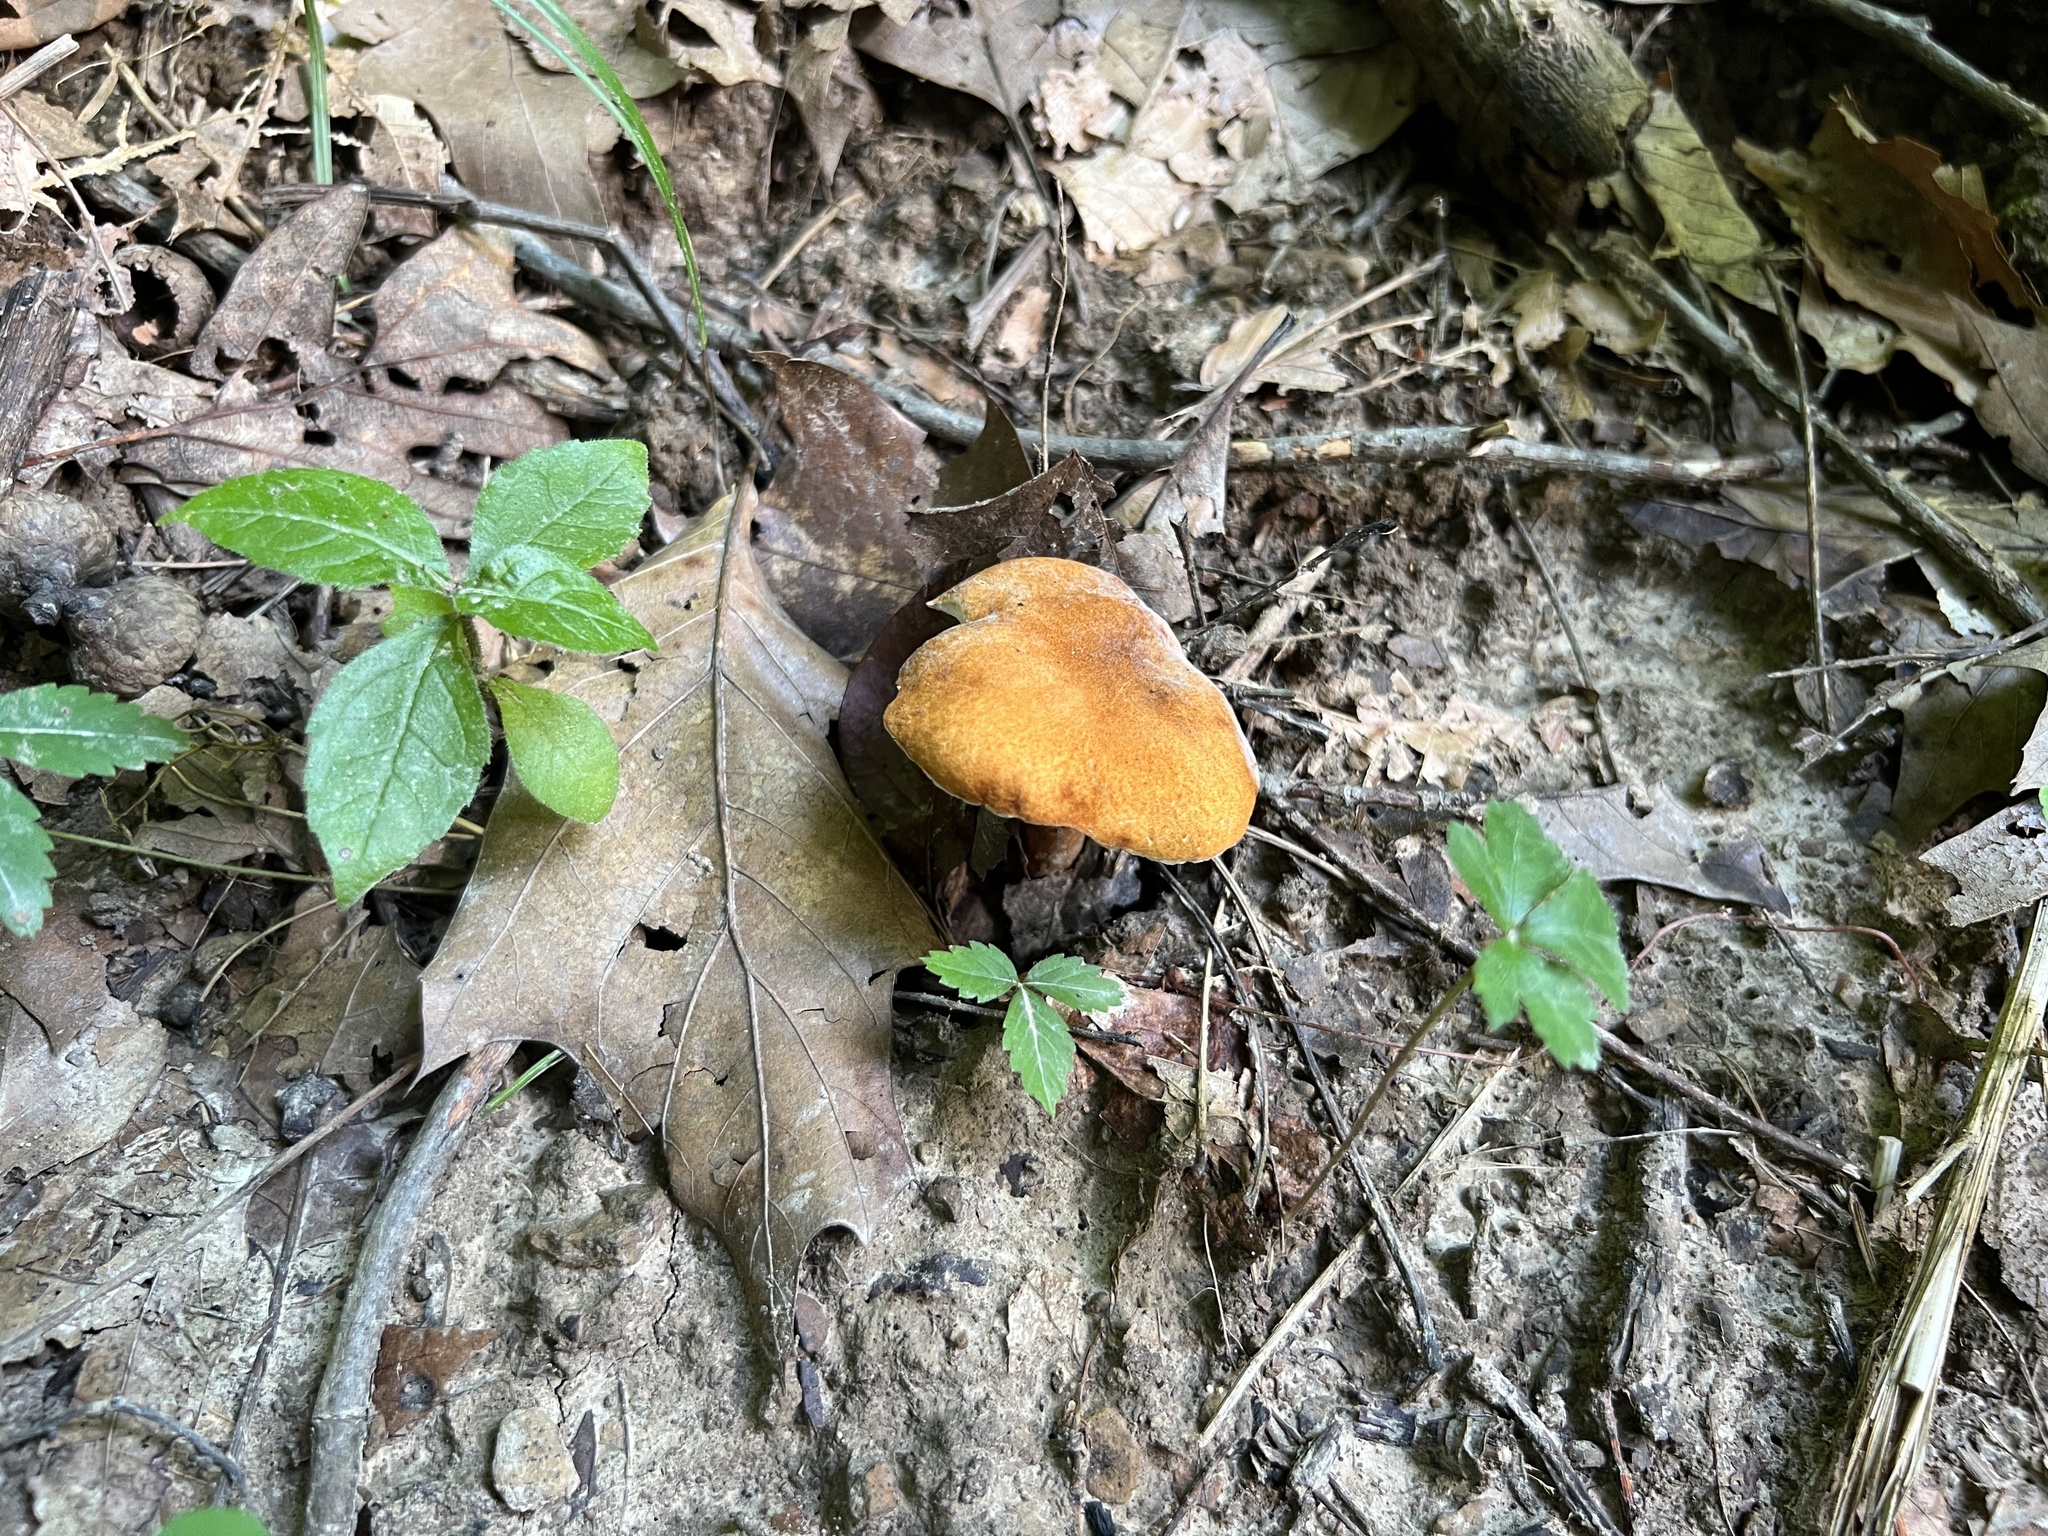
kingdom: Fungi
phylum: Basidiomycota
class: Agaricomycetes
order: Boletales
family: Gyroporaceae
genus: Gyroporus
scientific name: Gyroporus castaneus
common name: Chestnut bolete
